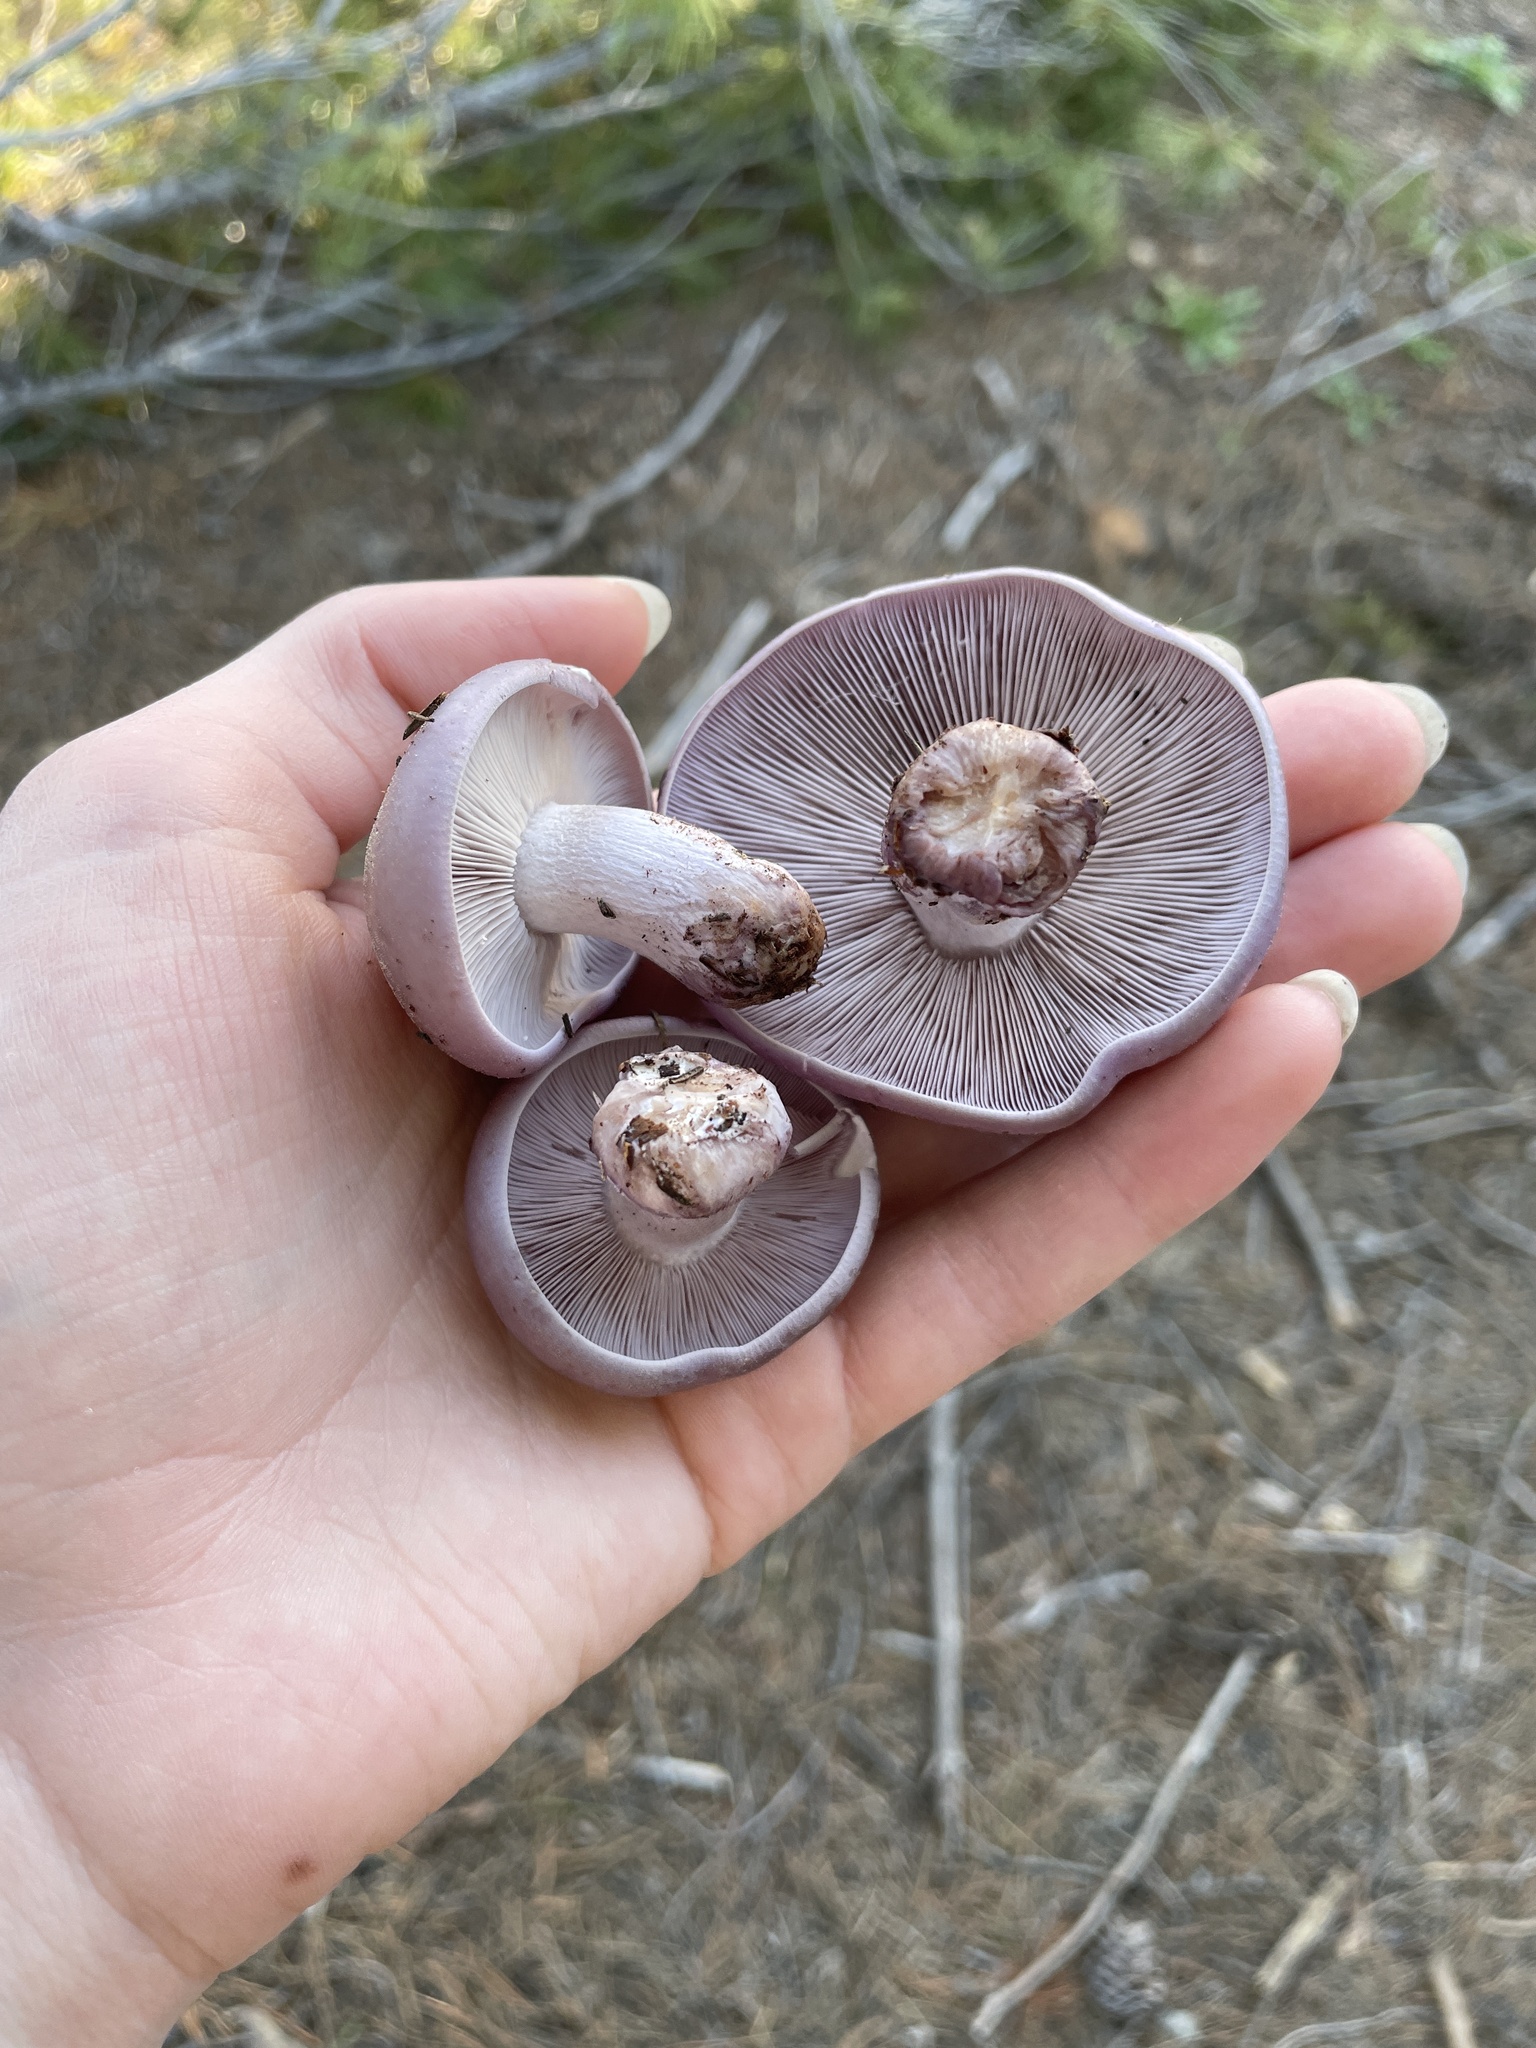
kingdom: Fungi
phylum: Basidiomycota
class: Agaricomycetes
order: Agaricales
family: Tricholomataceae
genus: Collybia
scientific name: Collybia
